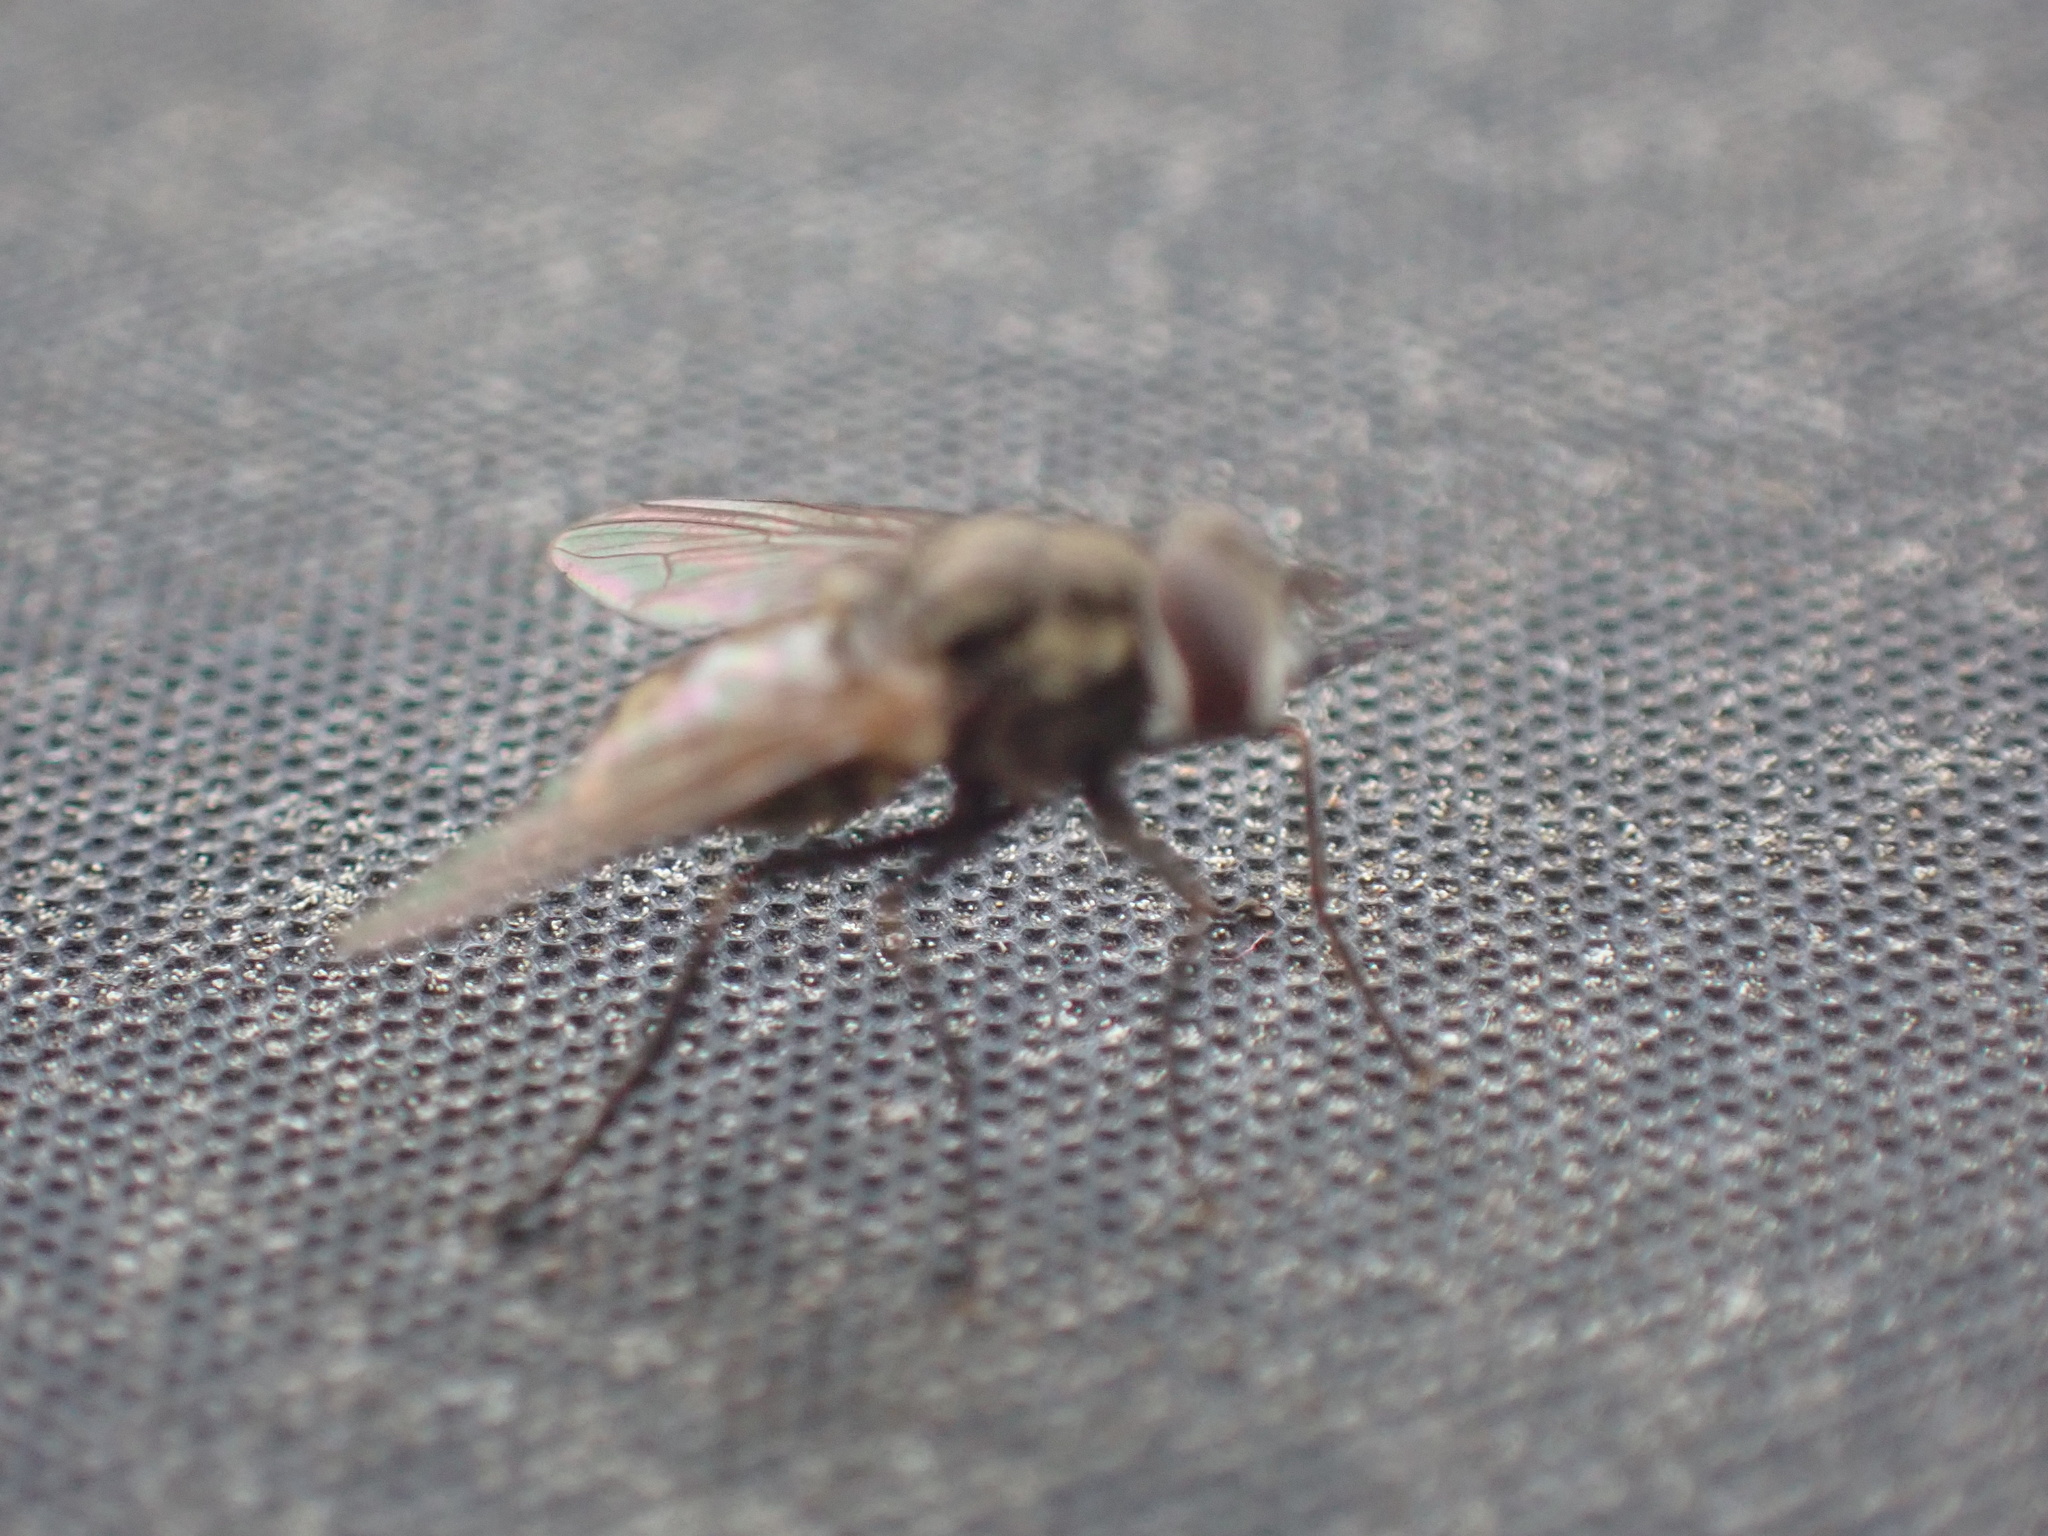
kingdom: Animalia
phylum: Arthropoda
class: Insecta
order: Diptera
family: Muscidae
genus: Stomoxys
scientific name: Stomoxys calcitrans
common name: Stable fly
